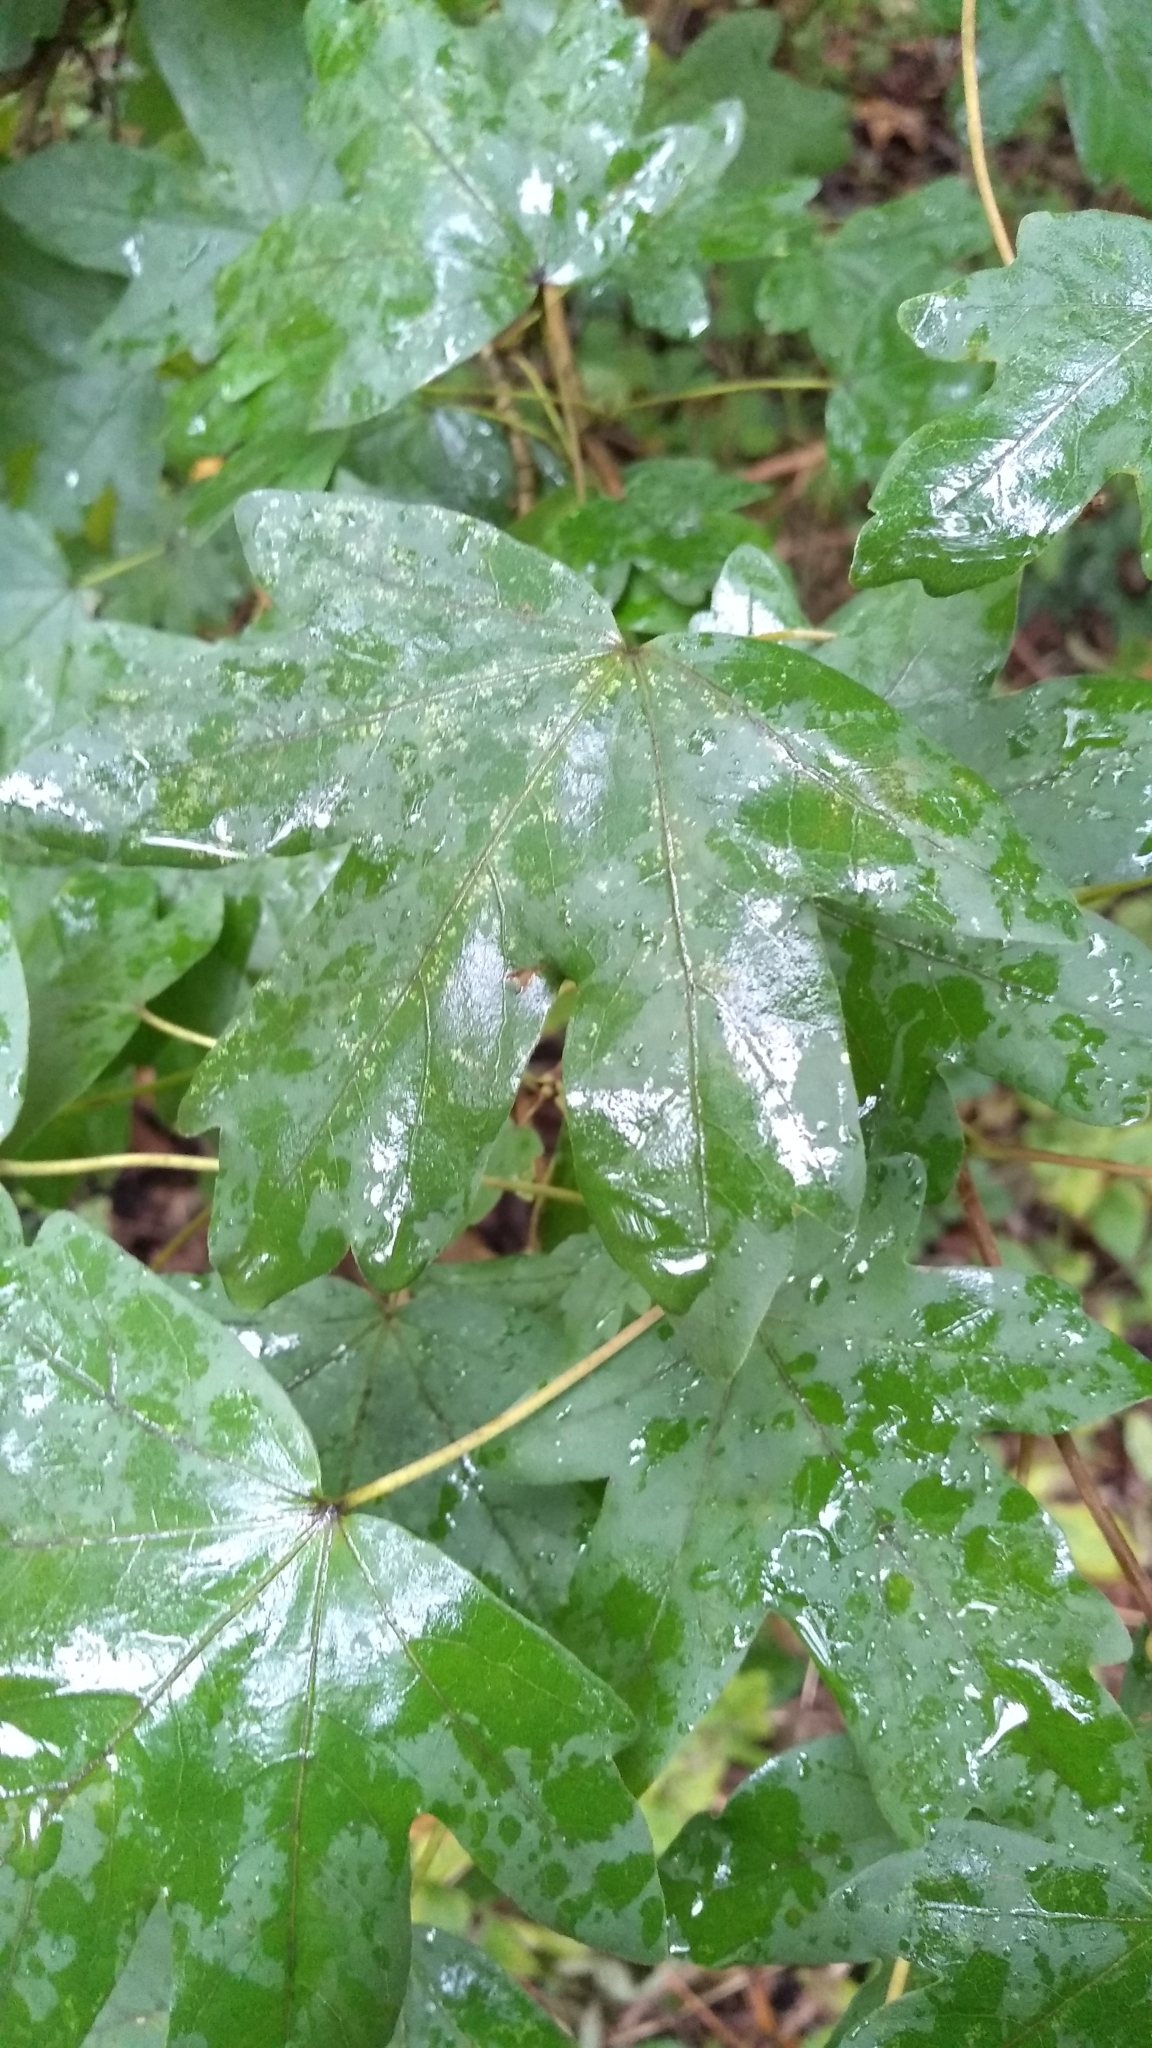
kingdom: Plantae
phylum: Tracheophyta
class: Magnoliopsida
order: Sapindales
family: Sapindaceae
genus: Acer
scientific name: Acer campestre
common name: Field maple
